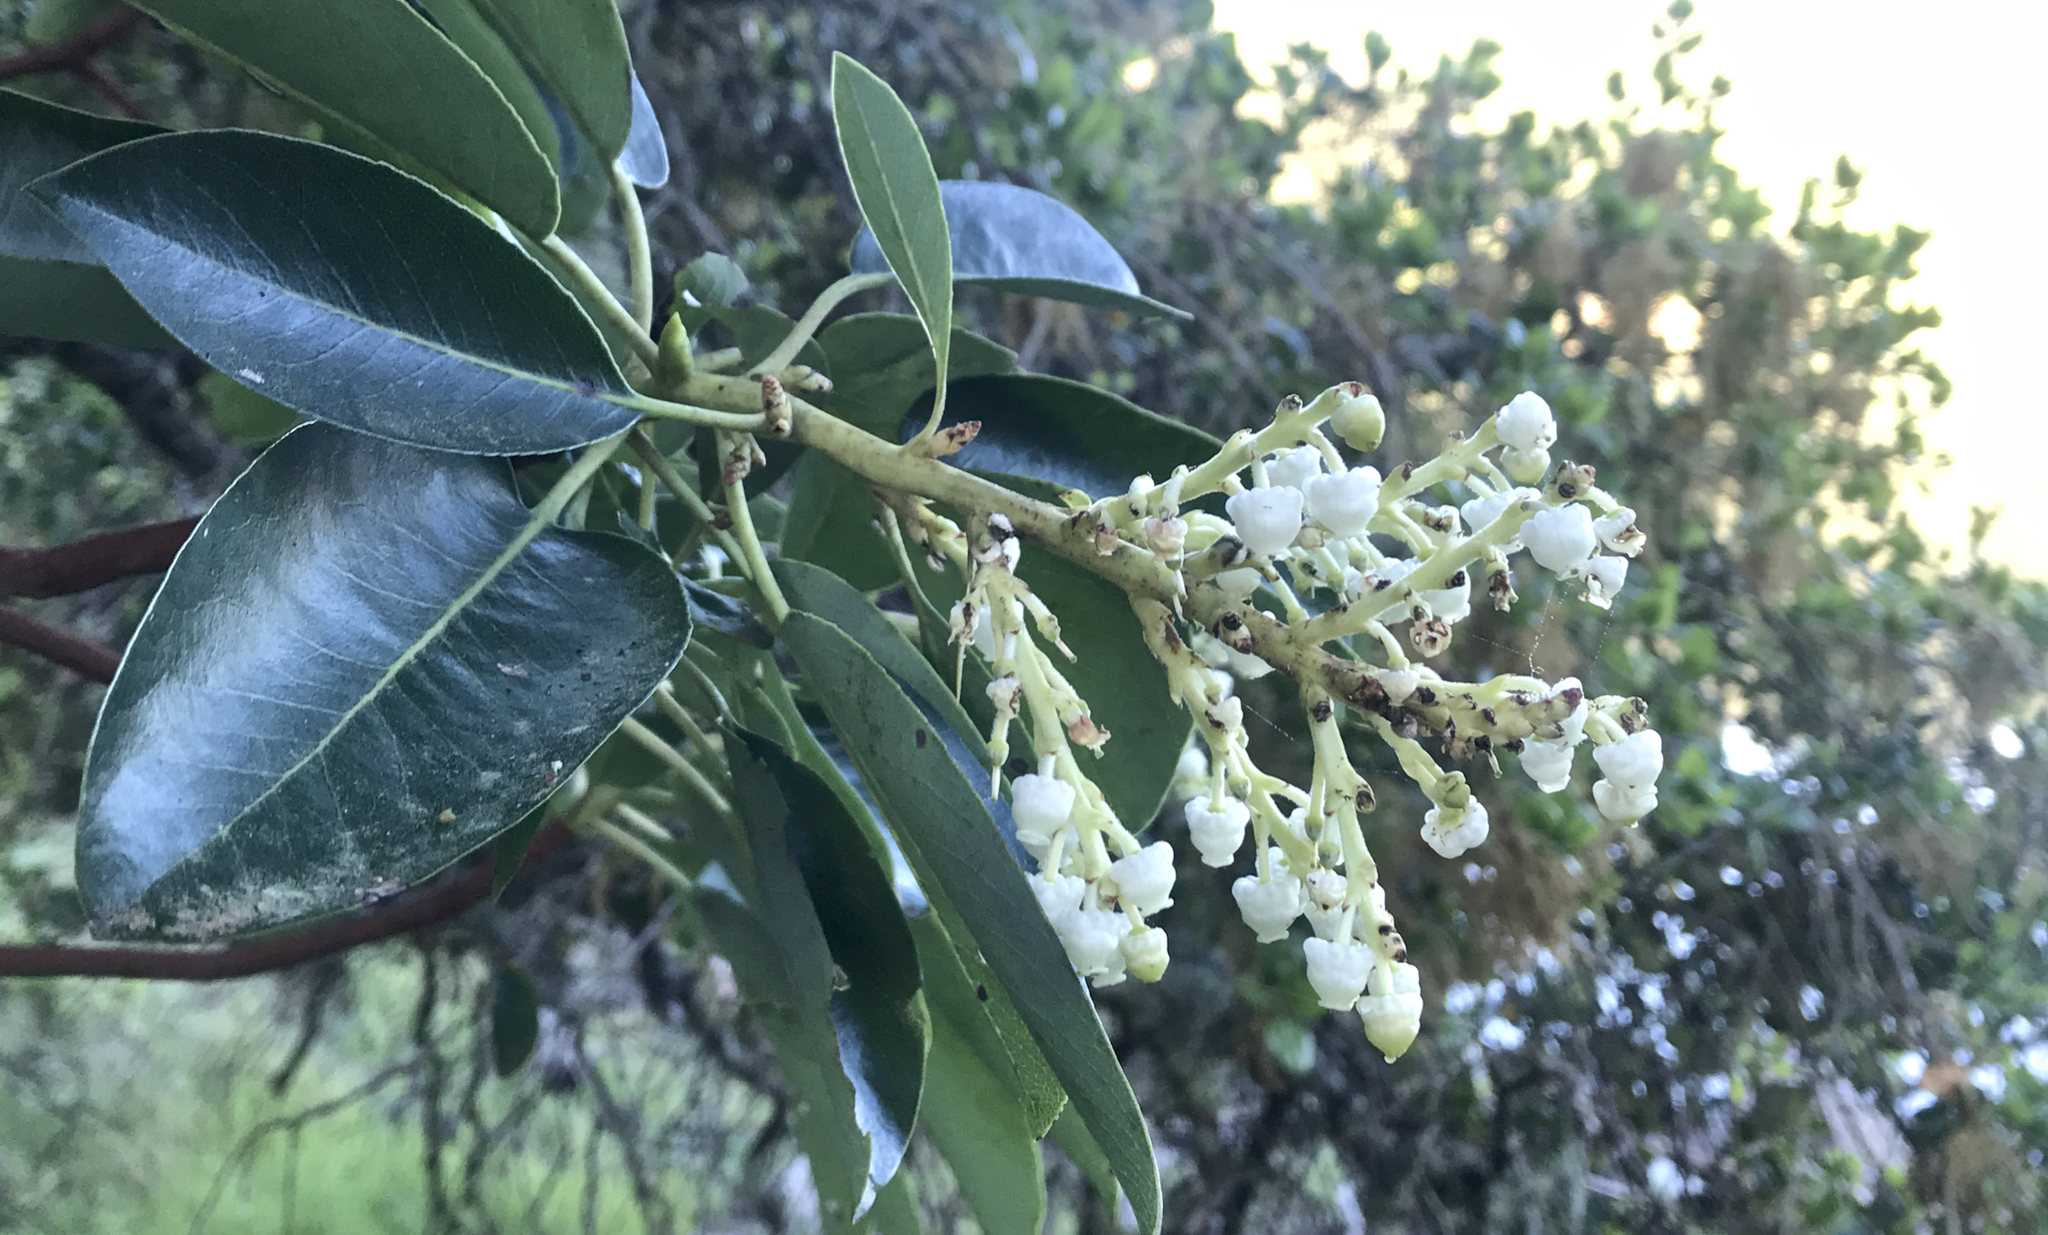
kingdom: Plantae
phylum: Tracheophyta
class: Magnoliopsida
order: Ericales
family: Ericaceae
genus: Arbutus
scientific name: Arbutus menziesii
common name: Pacific madrone
